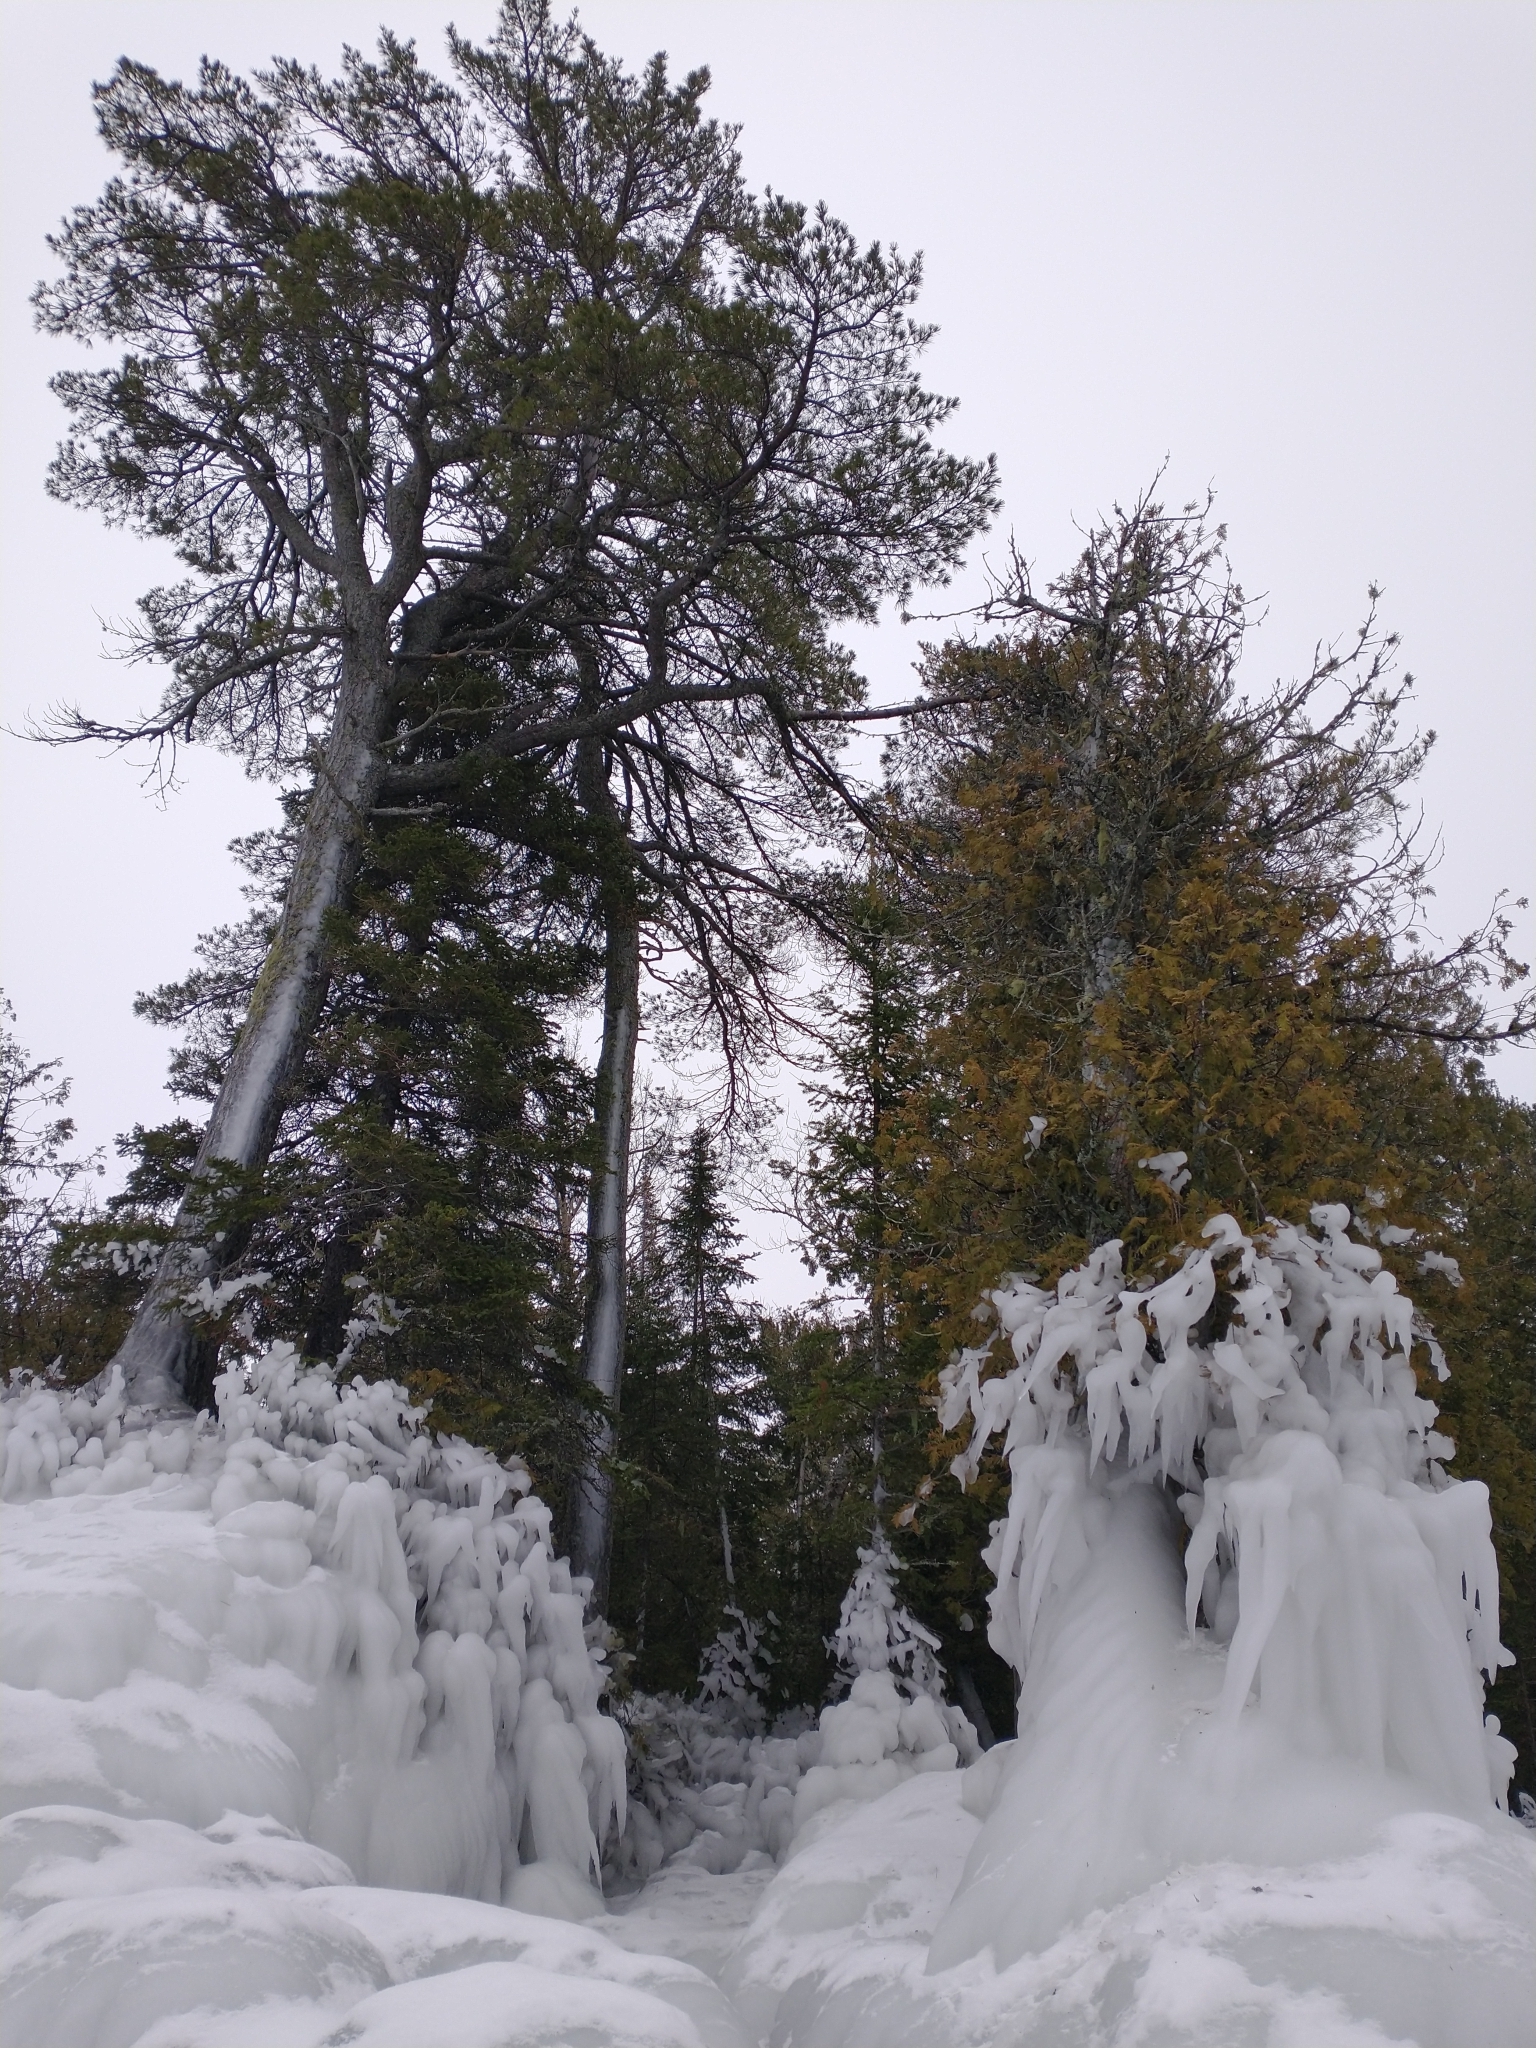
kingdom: Plantae
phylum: Tracheophyta
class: Pinopsida
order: Pinales
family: Pinaceae
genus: Pinus
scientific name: Pinus strobus
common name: Weymouth pine
